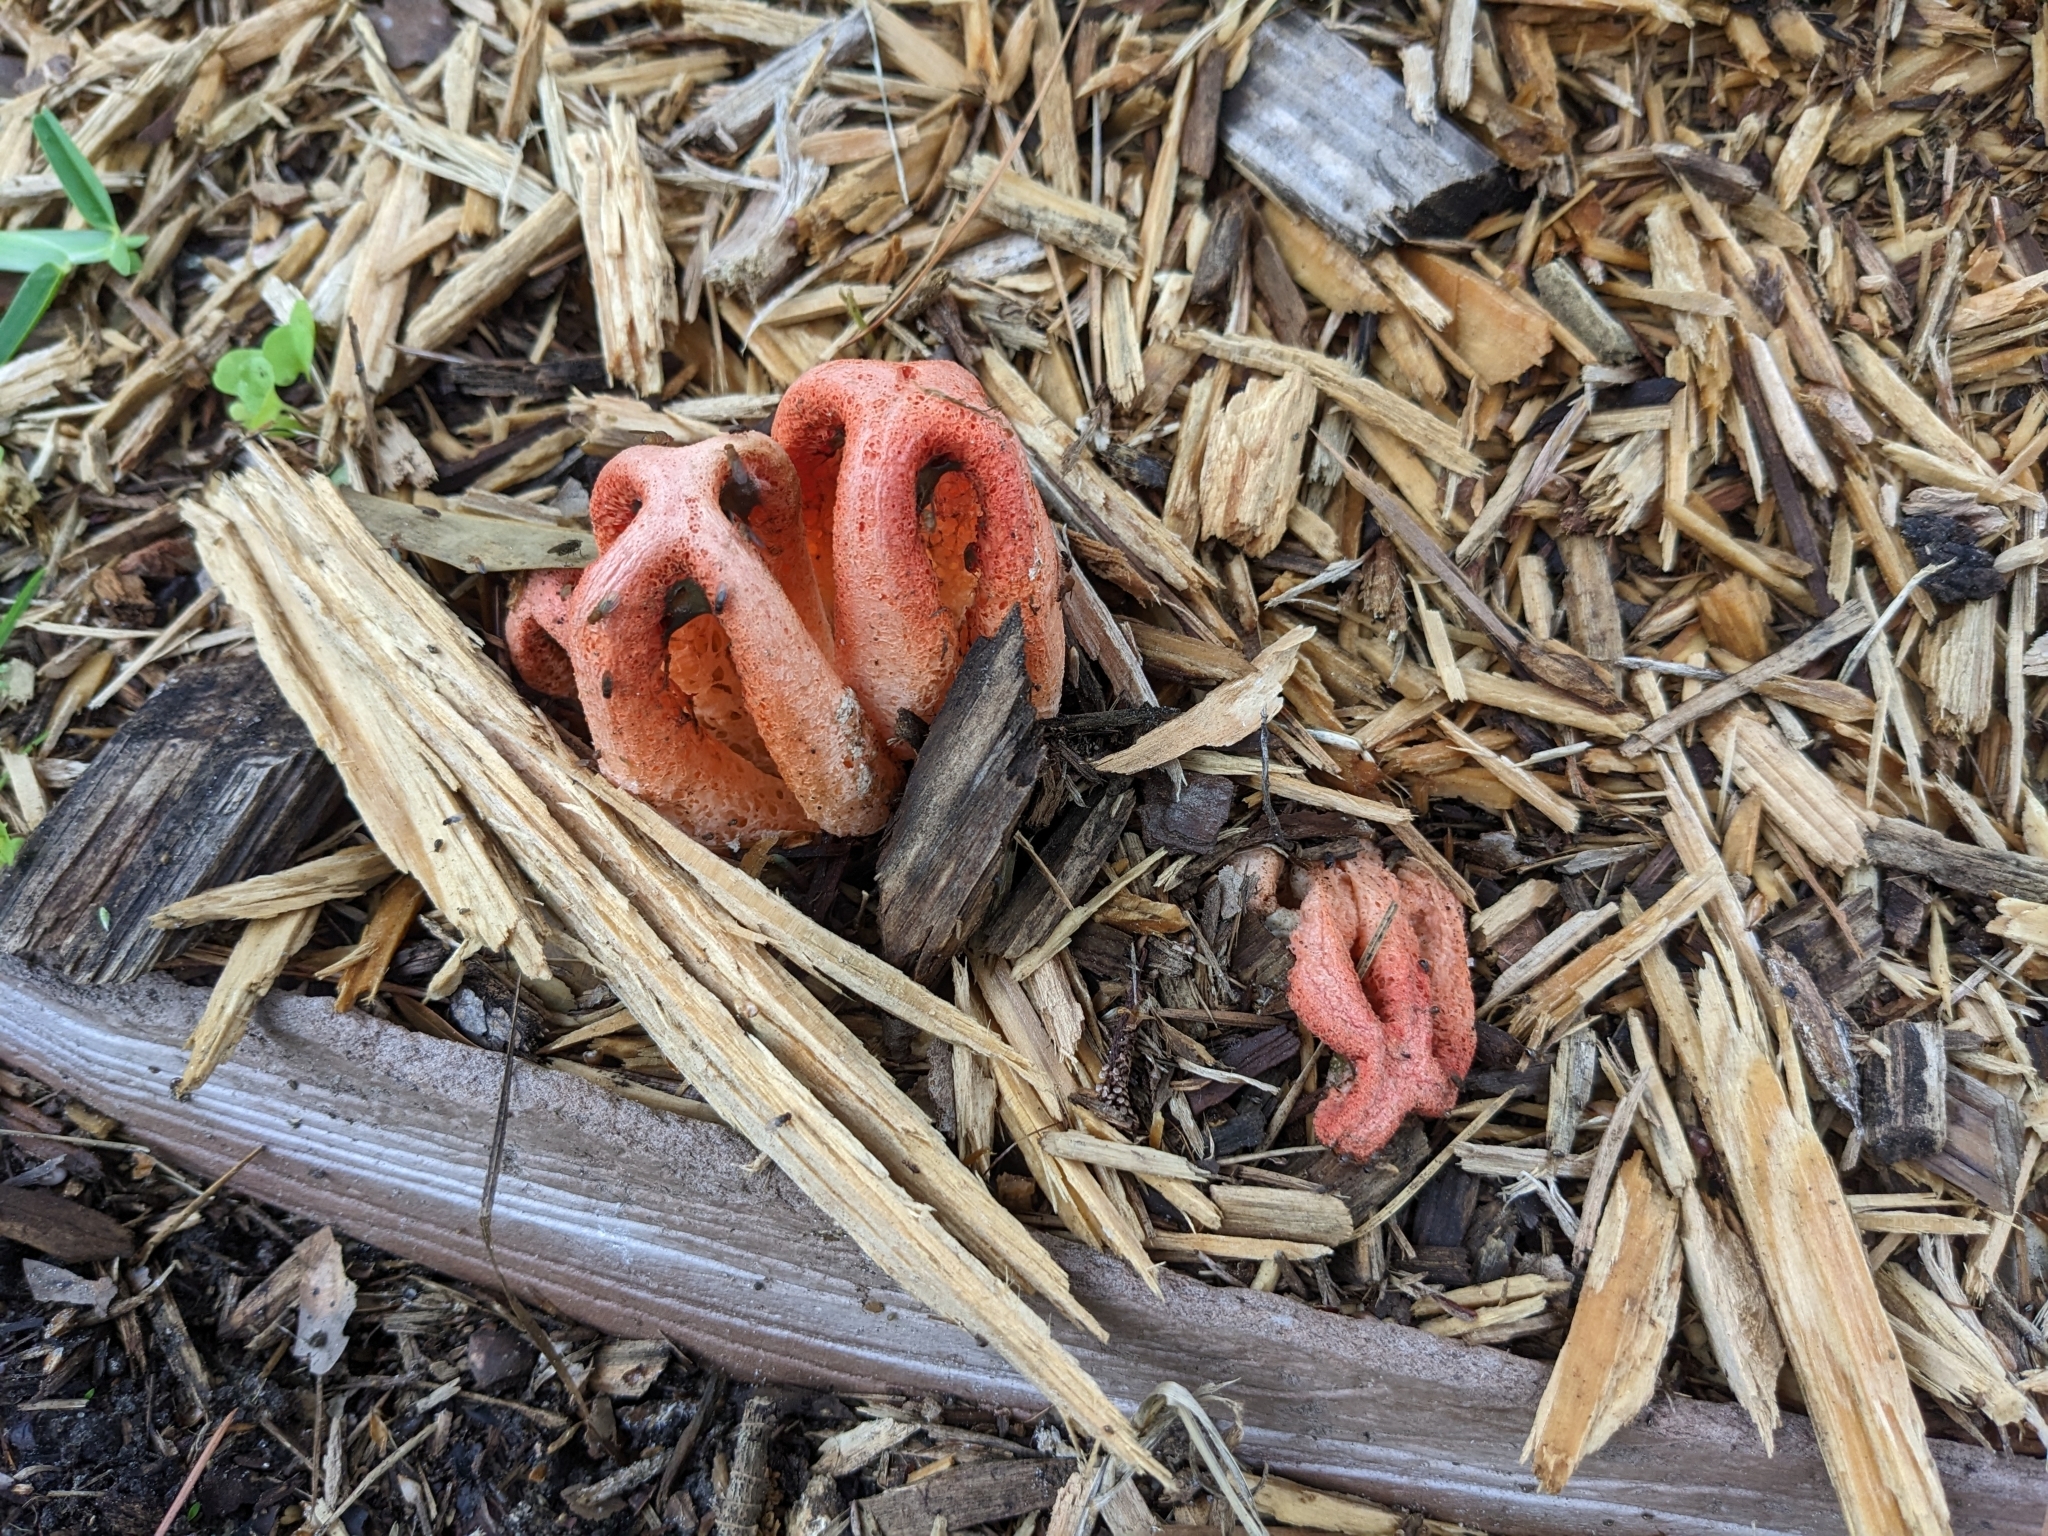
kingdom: Fungi
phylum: Basidiomycota
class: Agaricomycetes
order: Phallales
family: Phallaceae
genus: Clathrus
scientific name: Clathrus columnatus
